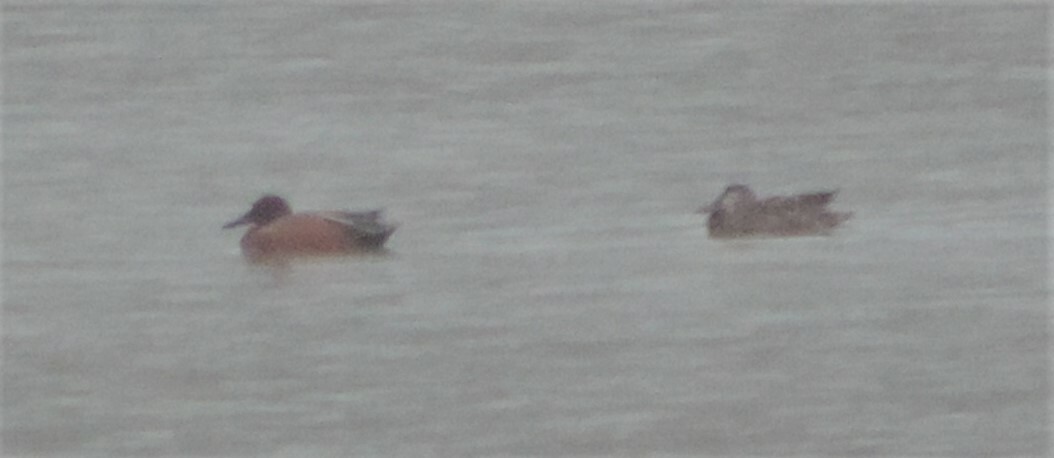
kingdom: Animalia
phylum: Chordata
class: Aves
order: Anseriformes
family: Anatidae
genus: Spatula
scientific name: Spatula cyanoptera
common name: Cinnamon teal
